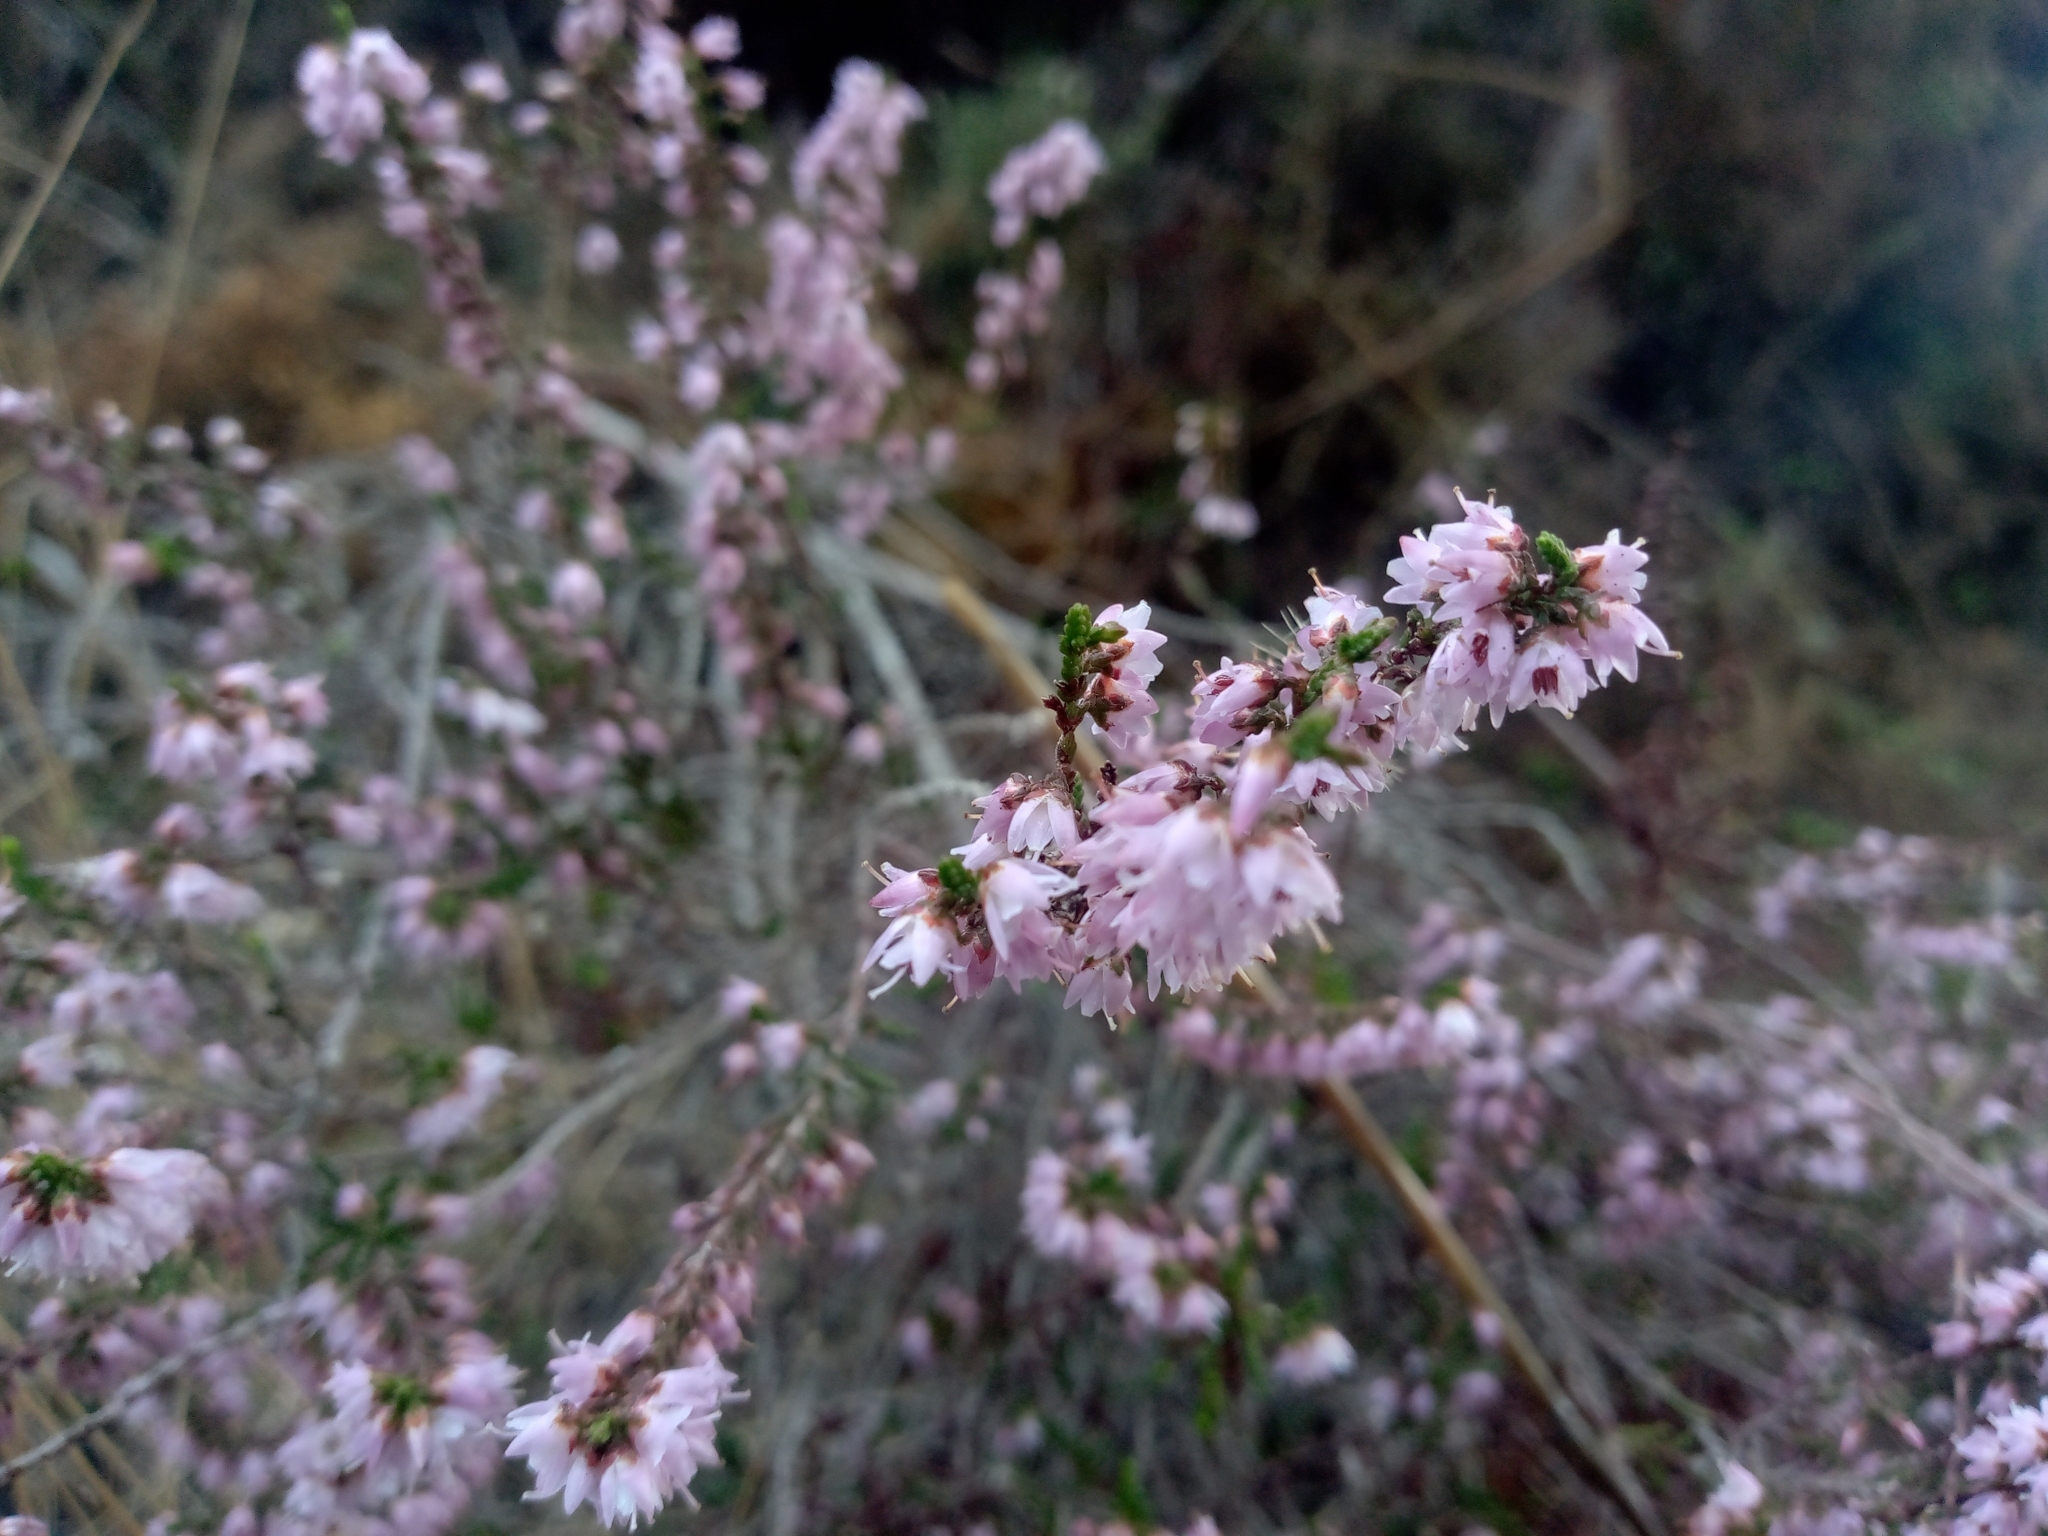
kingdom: Plantae
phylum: Tracheophyta
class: Magnoliopsida
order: Ericales
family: Ericaceae
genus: Calluna
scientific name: Calluna vulgaris
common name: Heather
